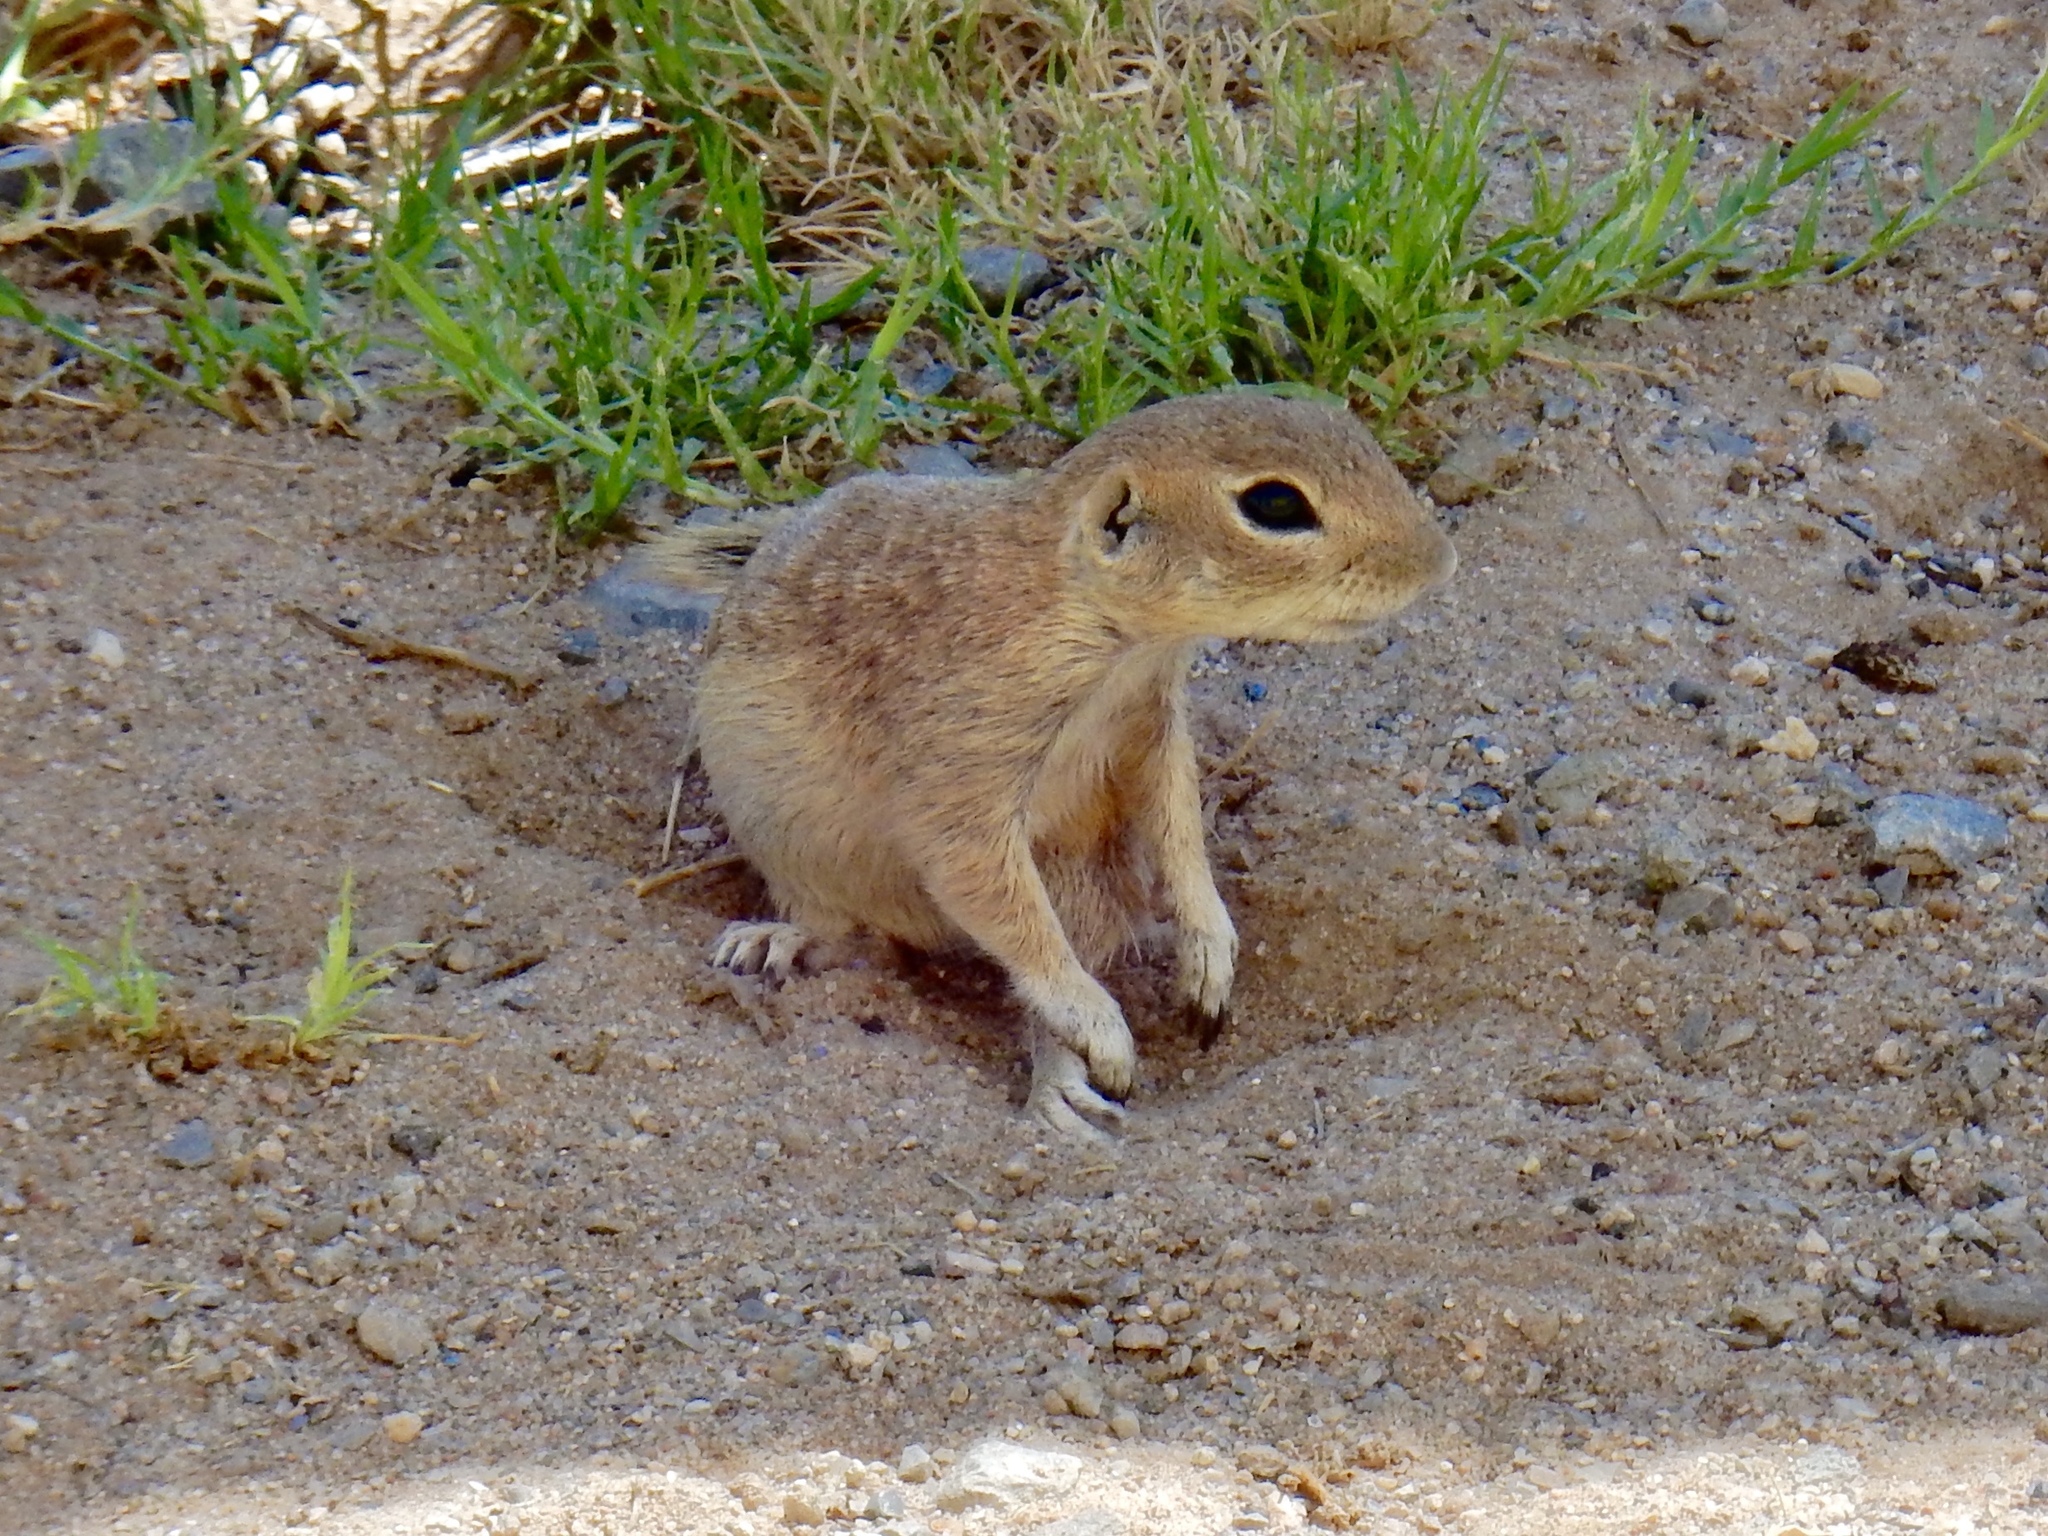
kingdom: Animalia
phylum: Chordata
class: Mammalia
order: Rodentia
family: Sciuridae
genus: Xerospermophilus
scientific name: Xerospermophilus spilosoma
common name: Spotted ground squirrel
